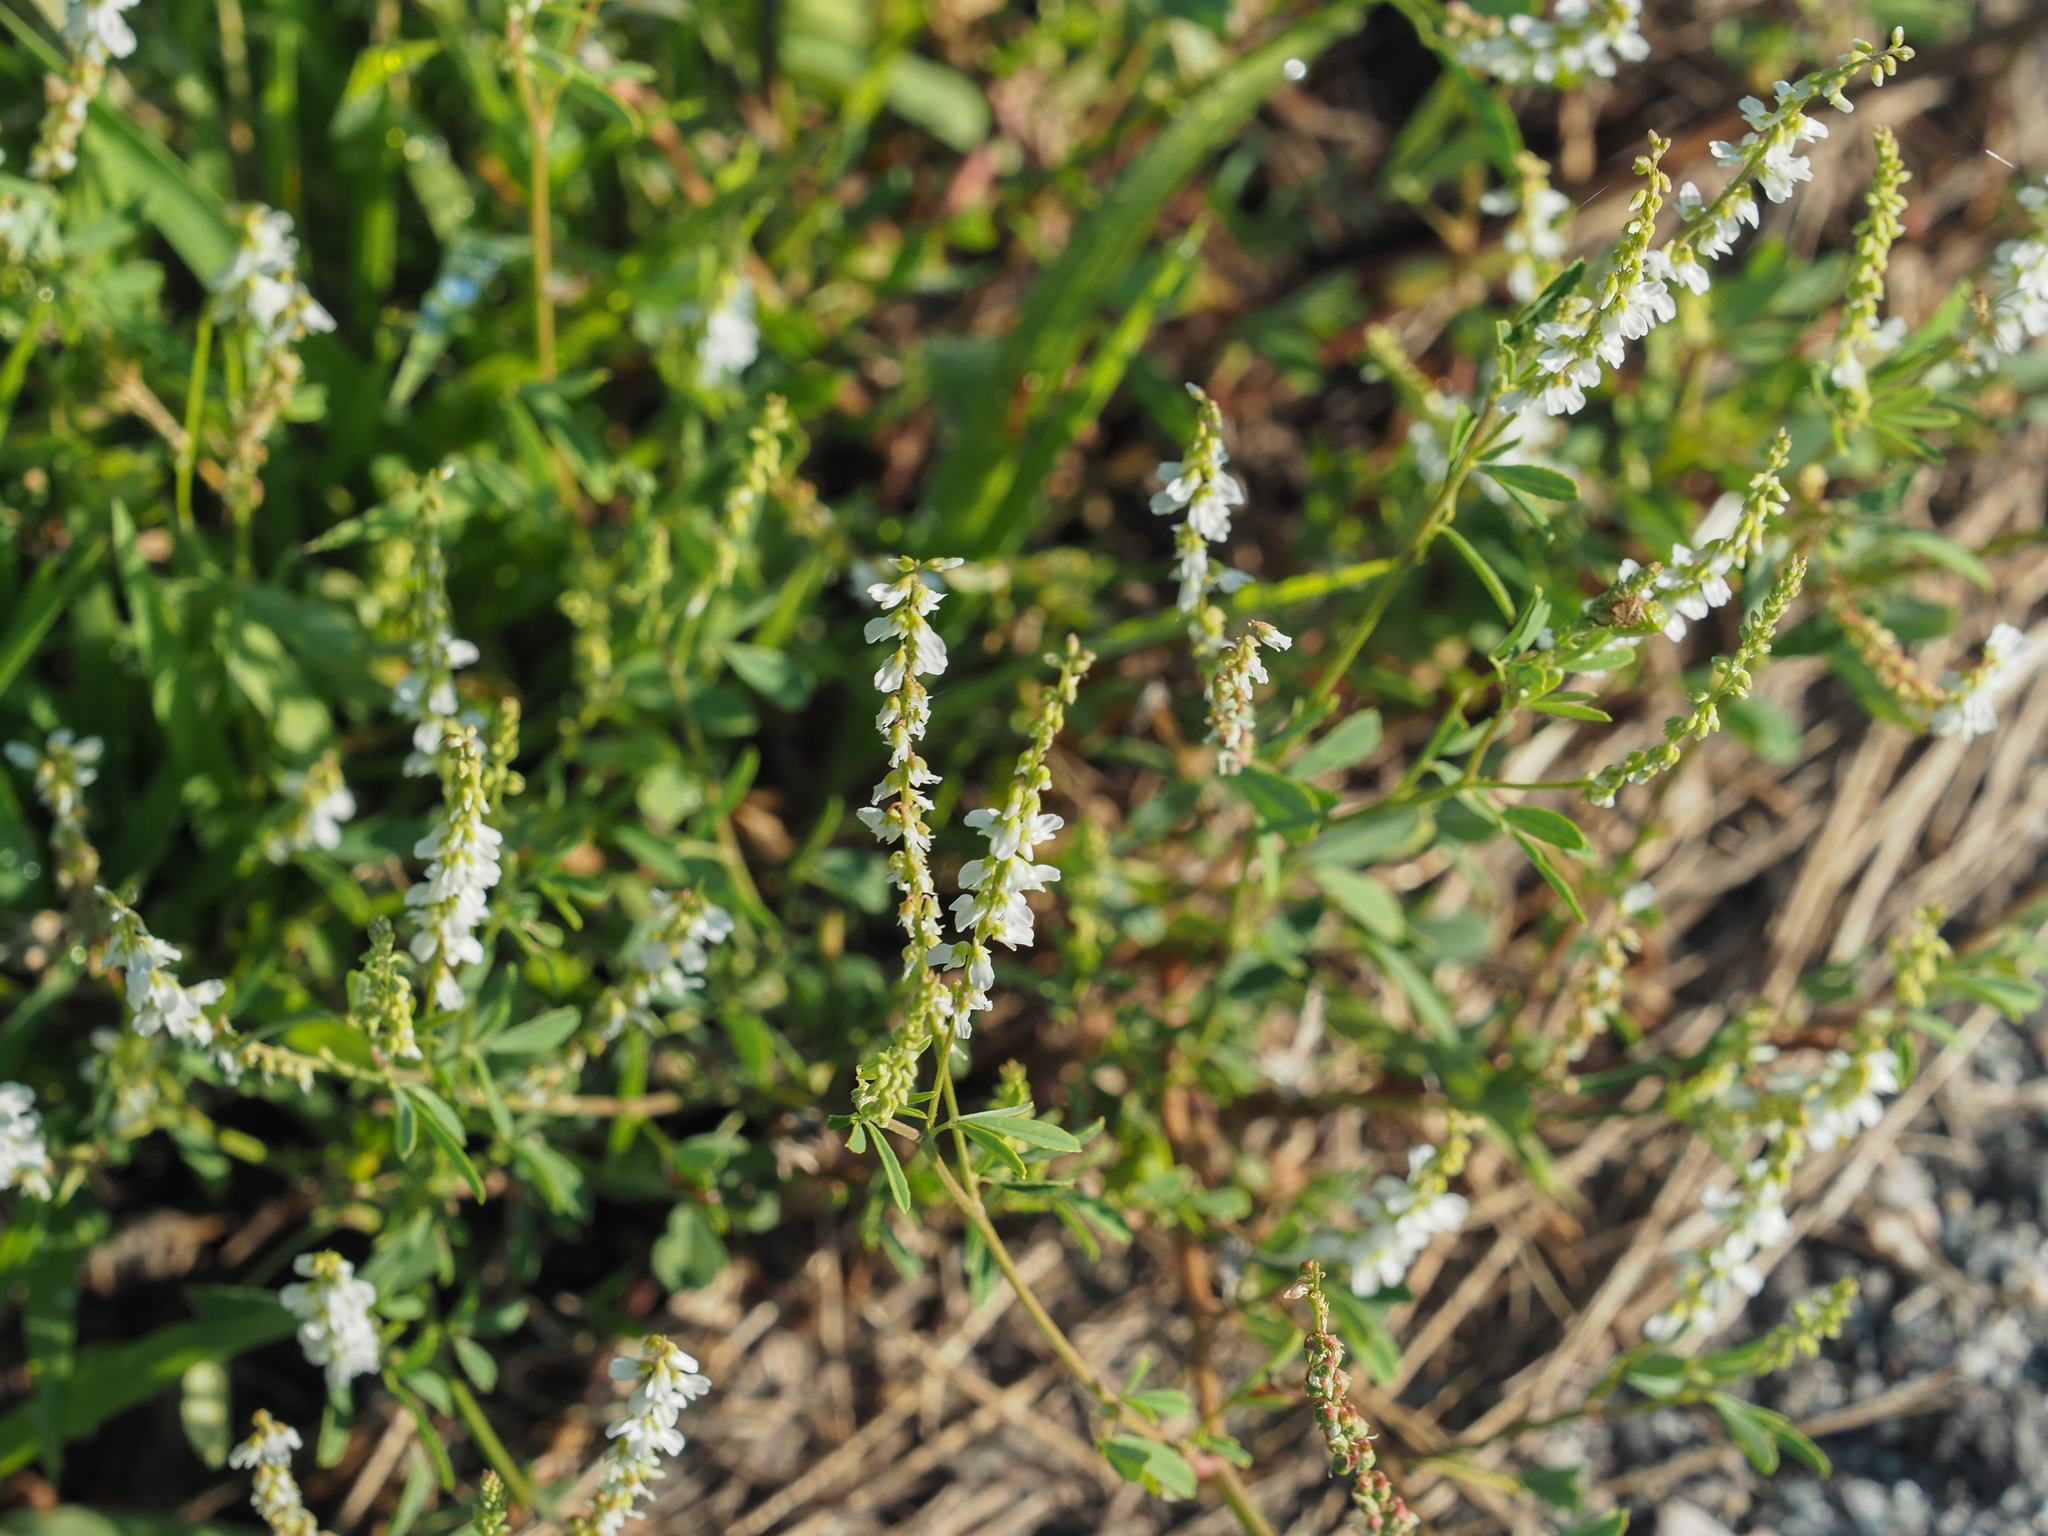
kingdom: Plantae
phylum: Tracheophyta
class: Magnoliopsida
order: Fabales
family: Fabaceae
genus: Melilotus
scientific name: Melilotus albus
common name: White melilot
